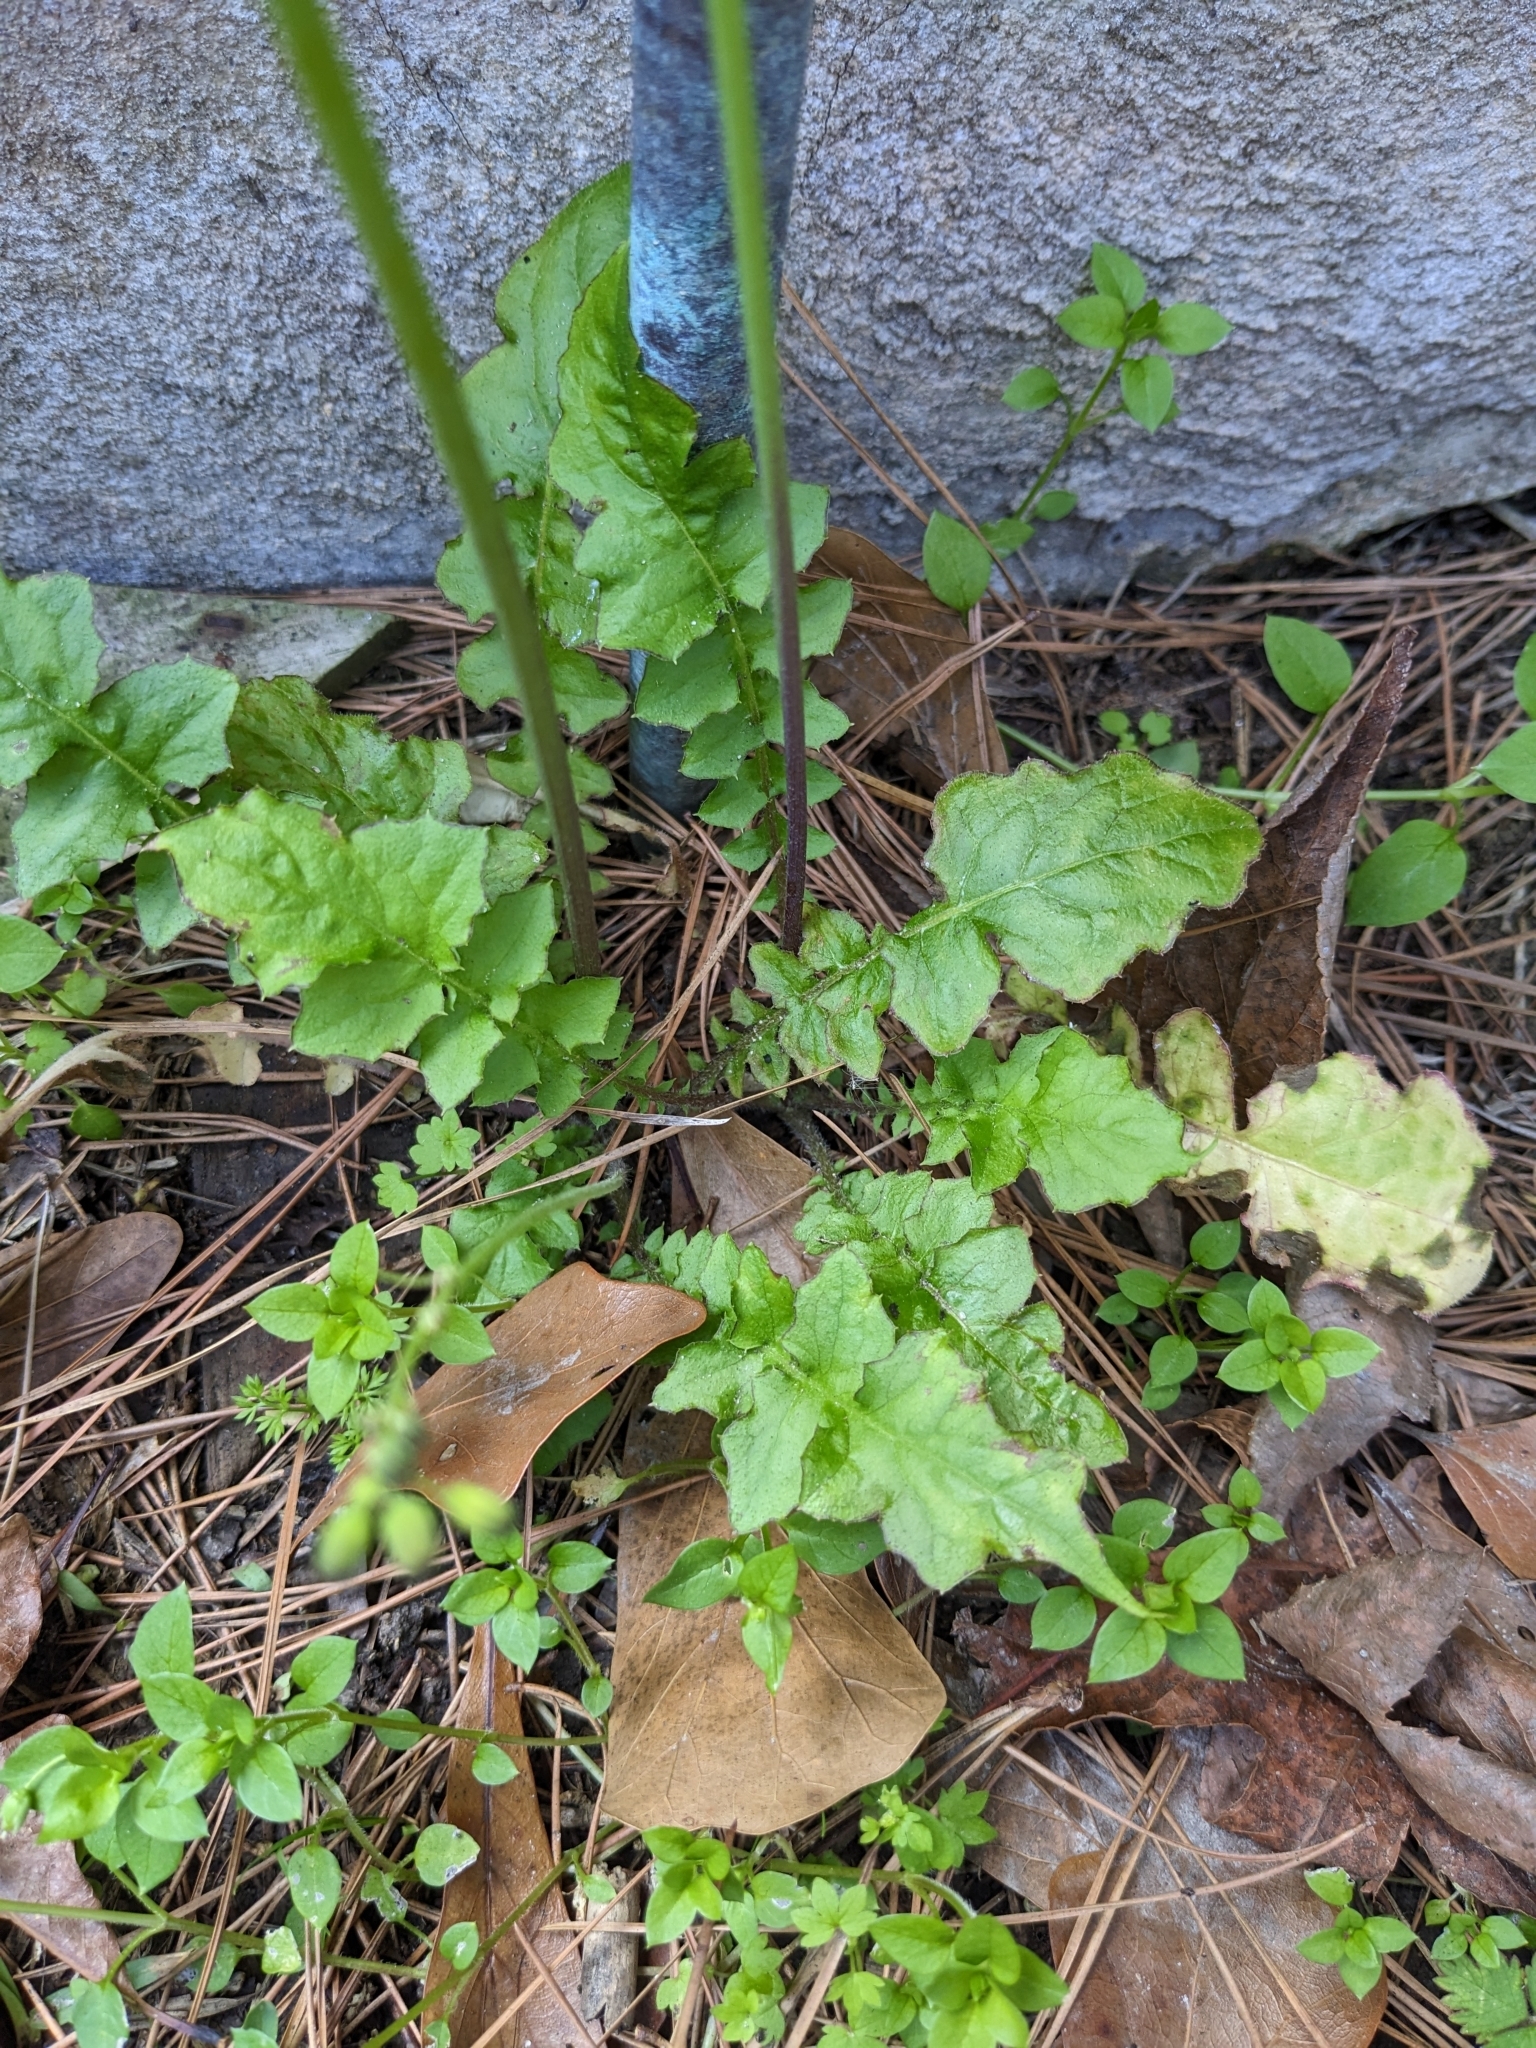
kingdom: Plantae
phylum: Tracheophyta
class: Magnoliopsida
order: Asterales
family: Asteraceae
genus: Youngia
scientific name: Youngia japonica
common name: Oriental false hawksbeard
